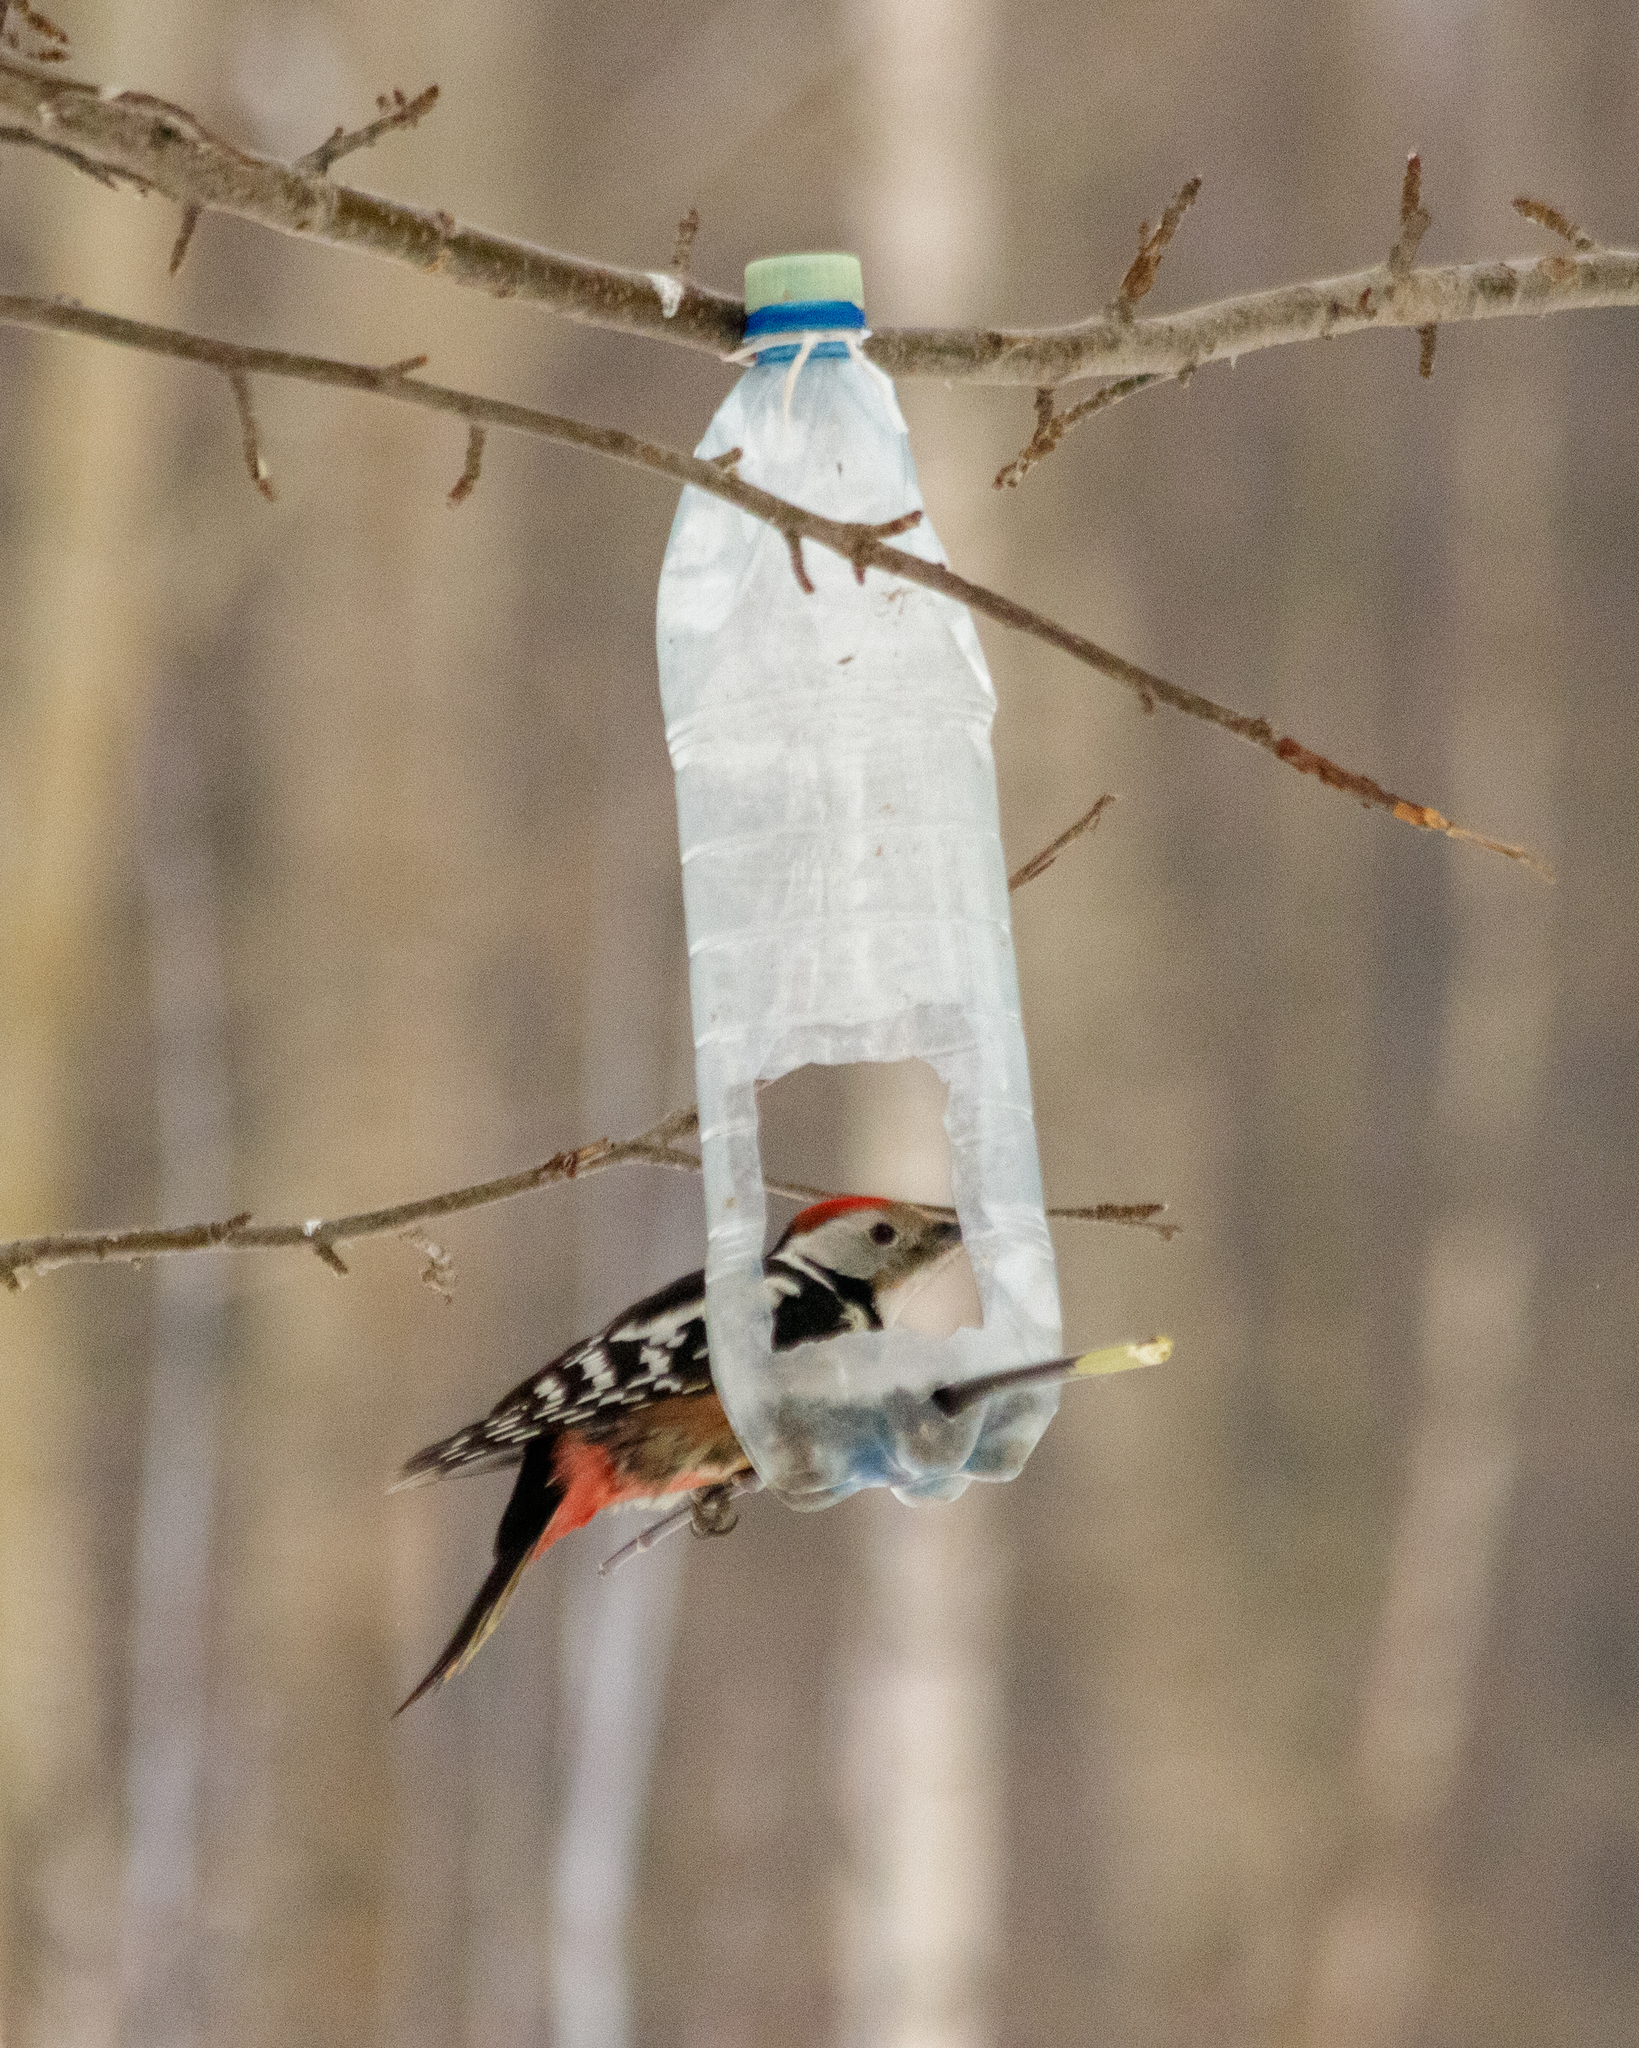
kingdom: Animalia
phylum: Chordata
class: Aves
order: Piciformes
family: Picidae
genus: Dendrocoptes
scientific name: Dendrocoptes medius
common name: Middle spotted woodpecker
